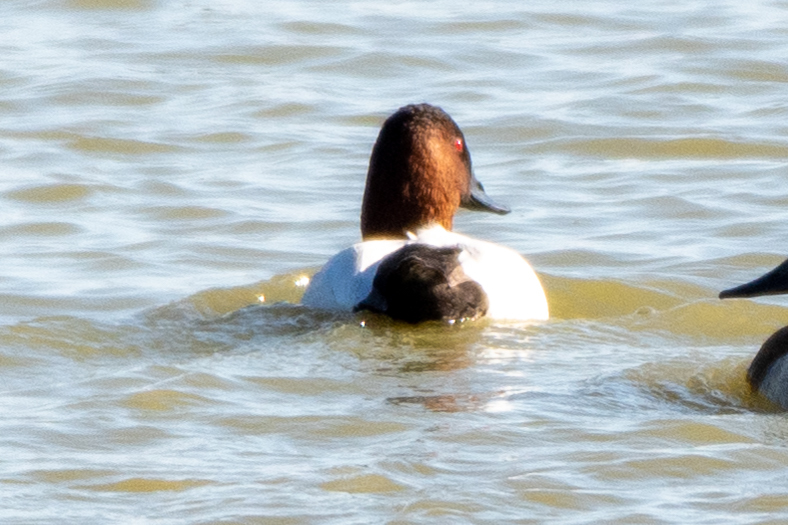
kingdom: Animalia
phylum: Chordata
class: Aves
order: Anseriformes
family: Anatidae
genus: Aythya
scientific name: Aythya valisineria
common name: Canvasback
